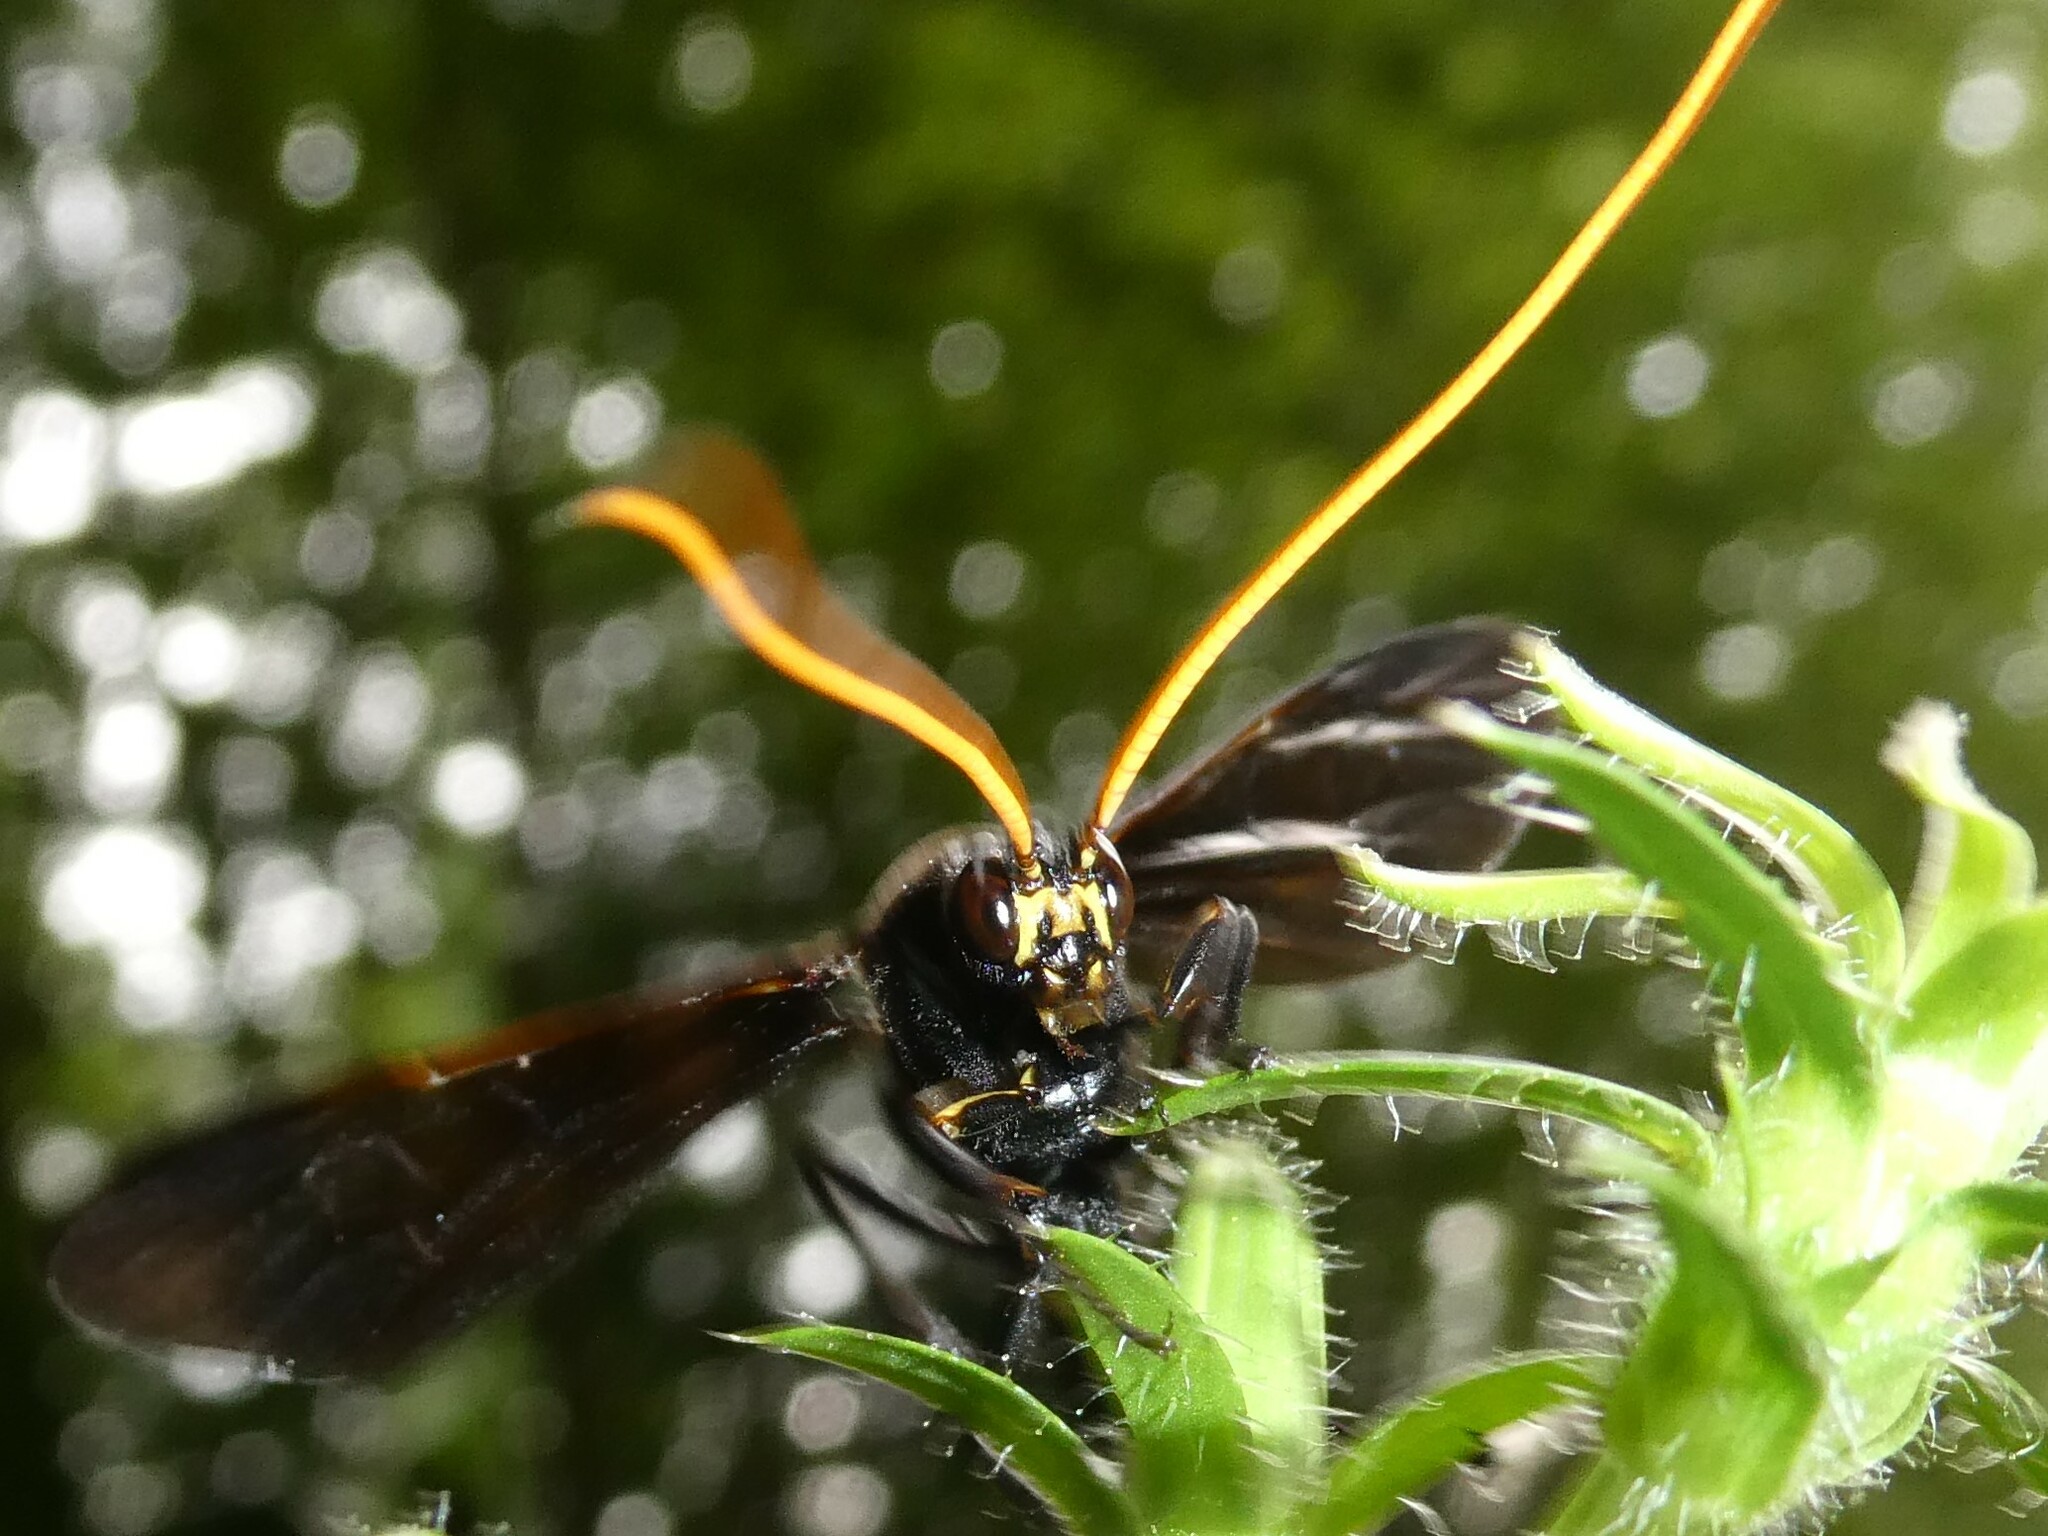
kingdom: Animalia
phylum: Arthropoda
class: Insecta
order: Hymenoptera
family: Ichneumonidae
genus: Thyreodon
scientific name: Thyreodon atricolor
